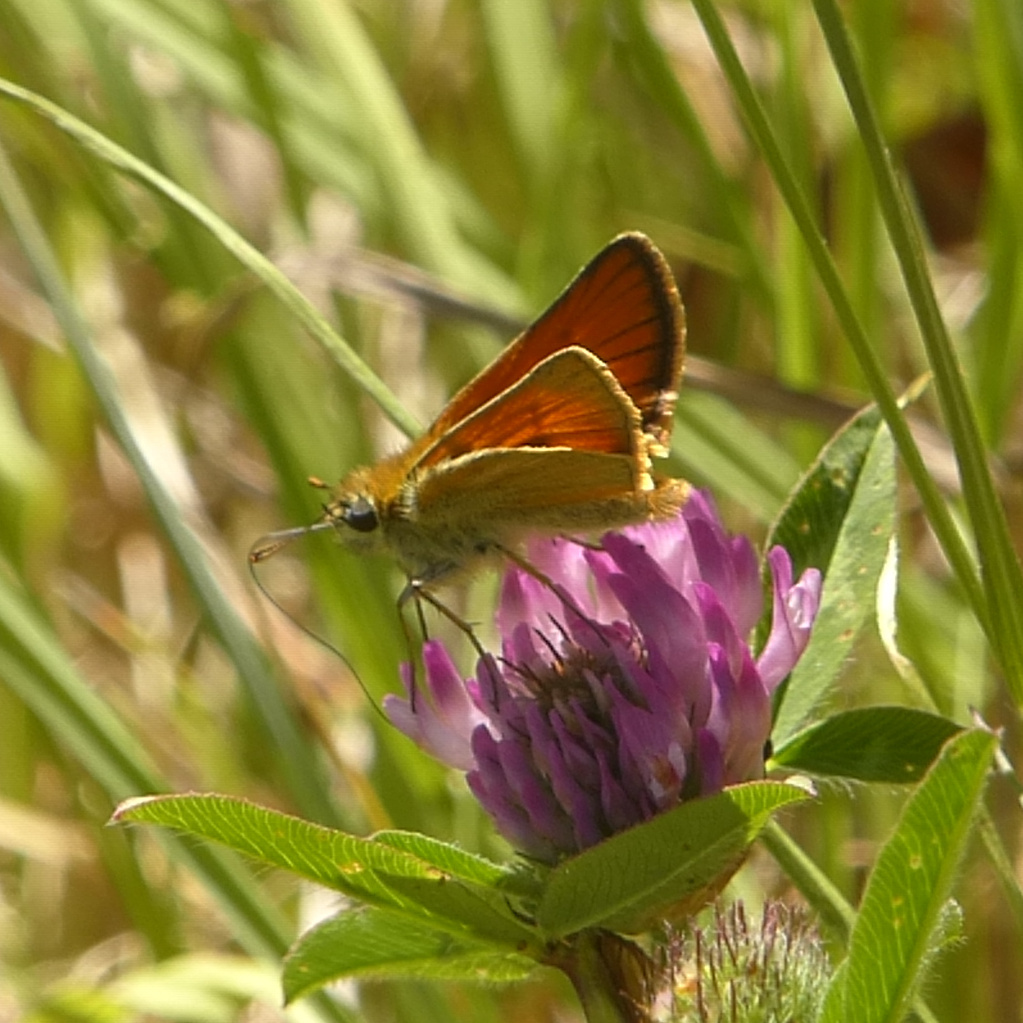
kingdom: Animalia
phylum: Arthropoda
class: Insecta
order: Lepidoptera
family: Hesperiidae
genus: Thymelicus
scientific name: Thymelicus sylvestris
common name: Small skipper
